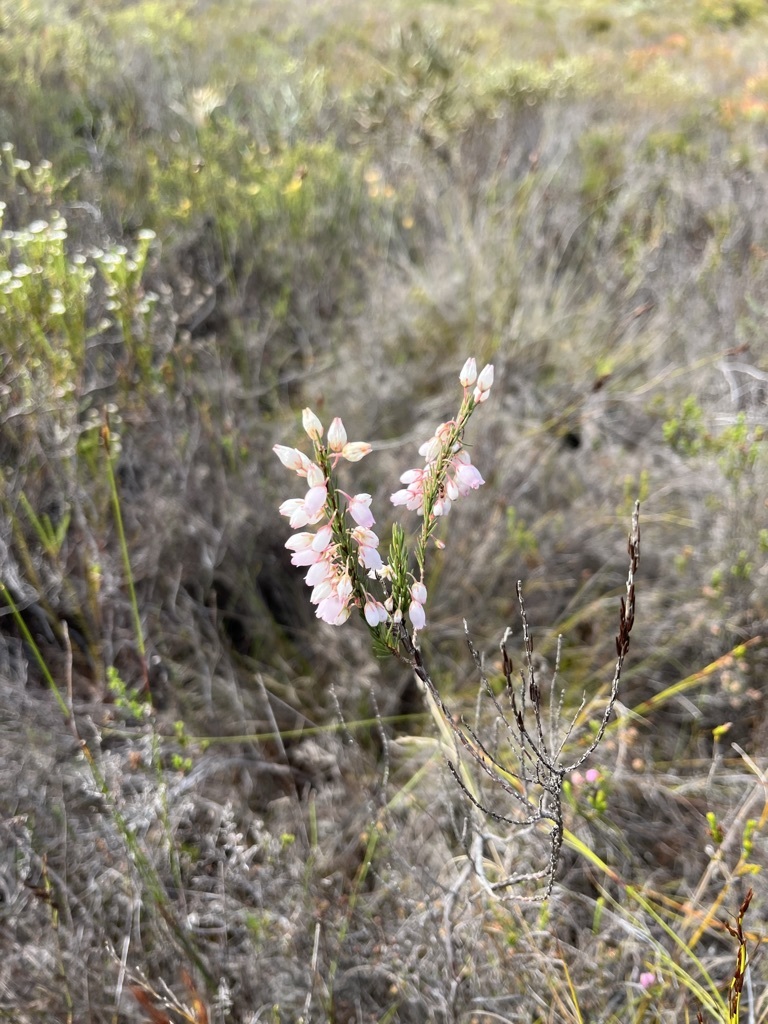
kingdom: Plantae
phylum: Tracheophyta
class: Magnoliopsida
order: Ericales
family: Ericaceae
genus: Erica
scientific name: Erica filipendula
